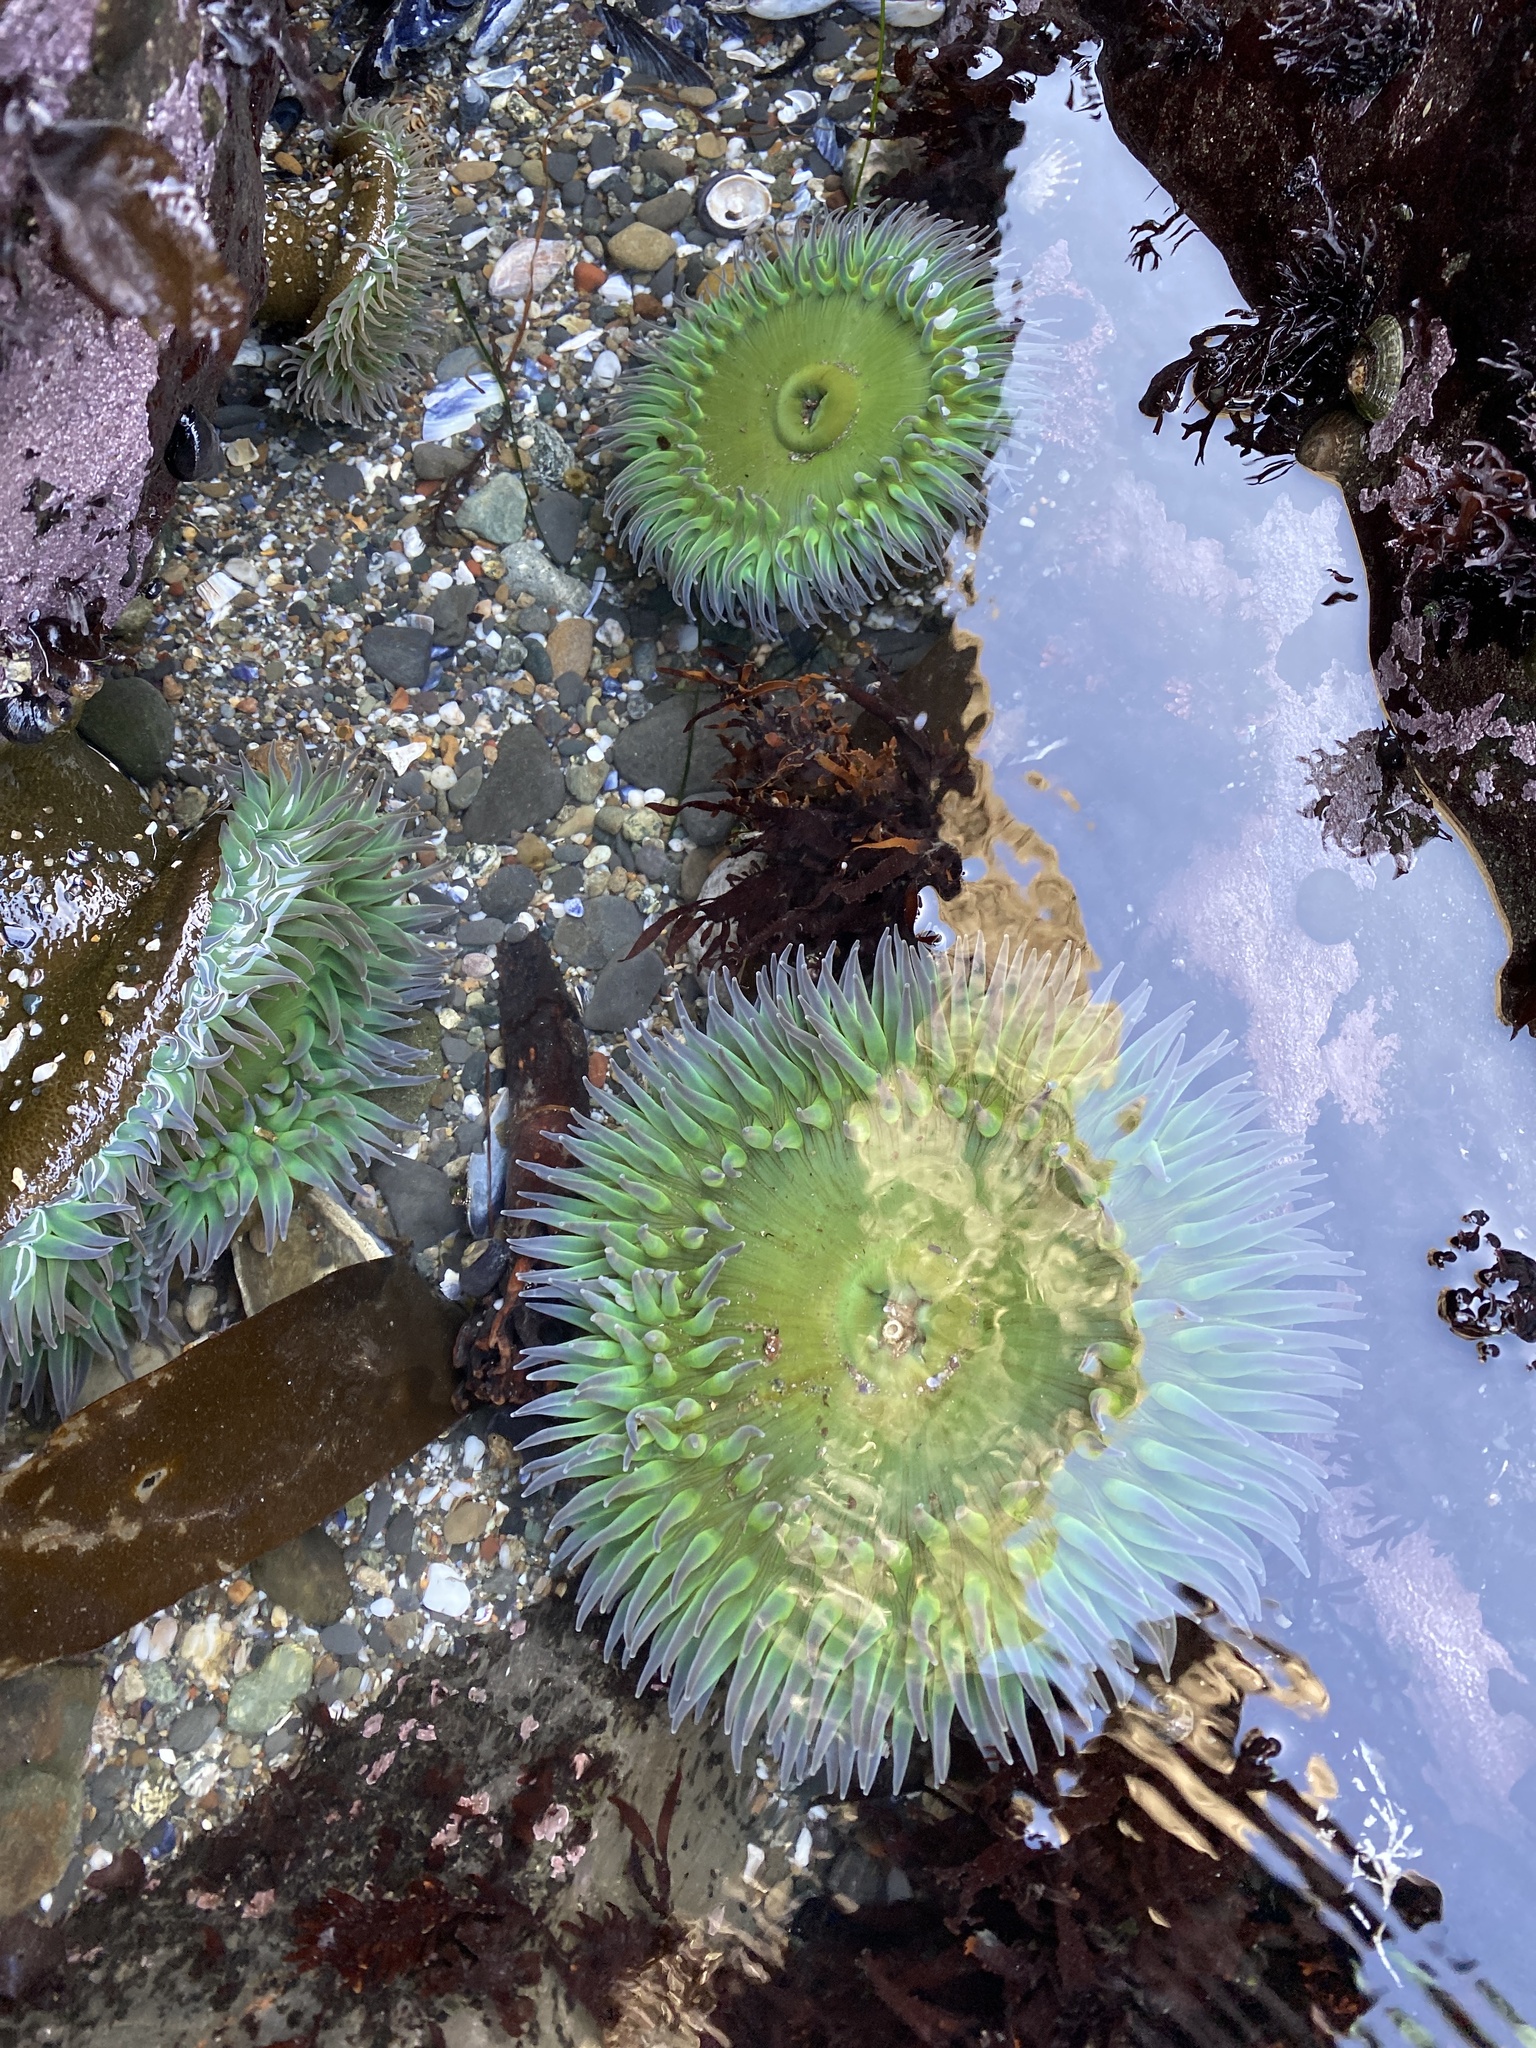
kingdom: Animalia
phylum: Cnidaria
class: Anthozoa
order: Actiniaria
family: Actiniidae
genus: Anthopleura
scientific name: Anthopleura xanthogrammica
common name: Giant green anemone
